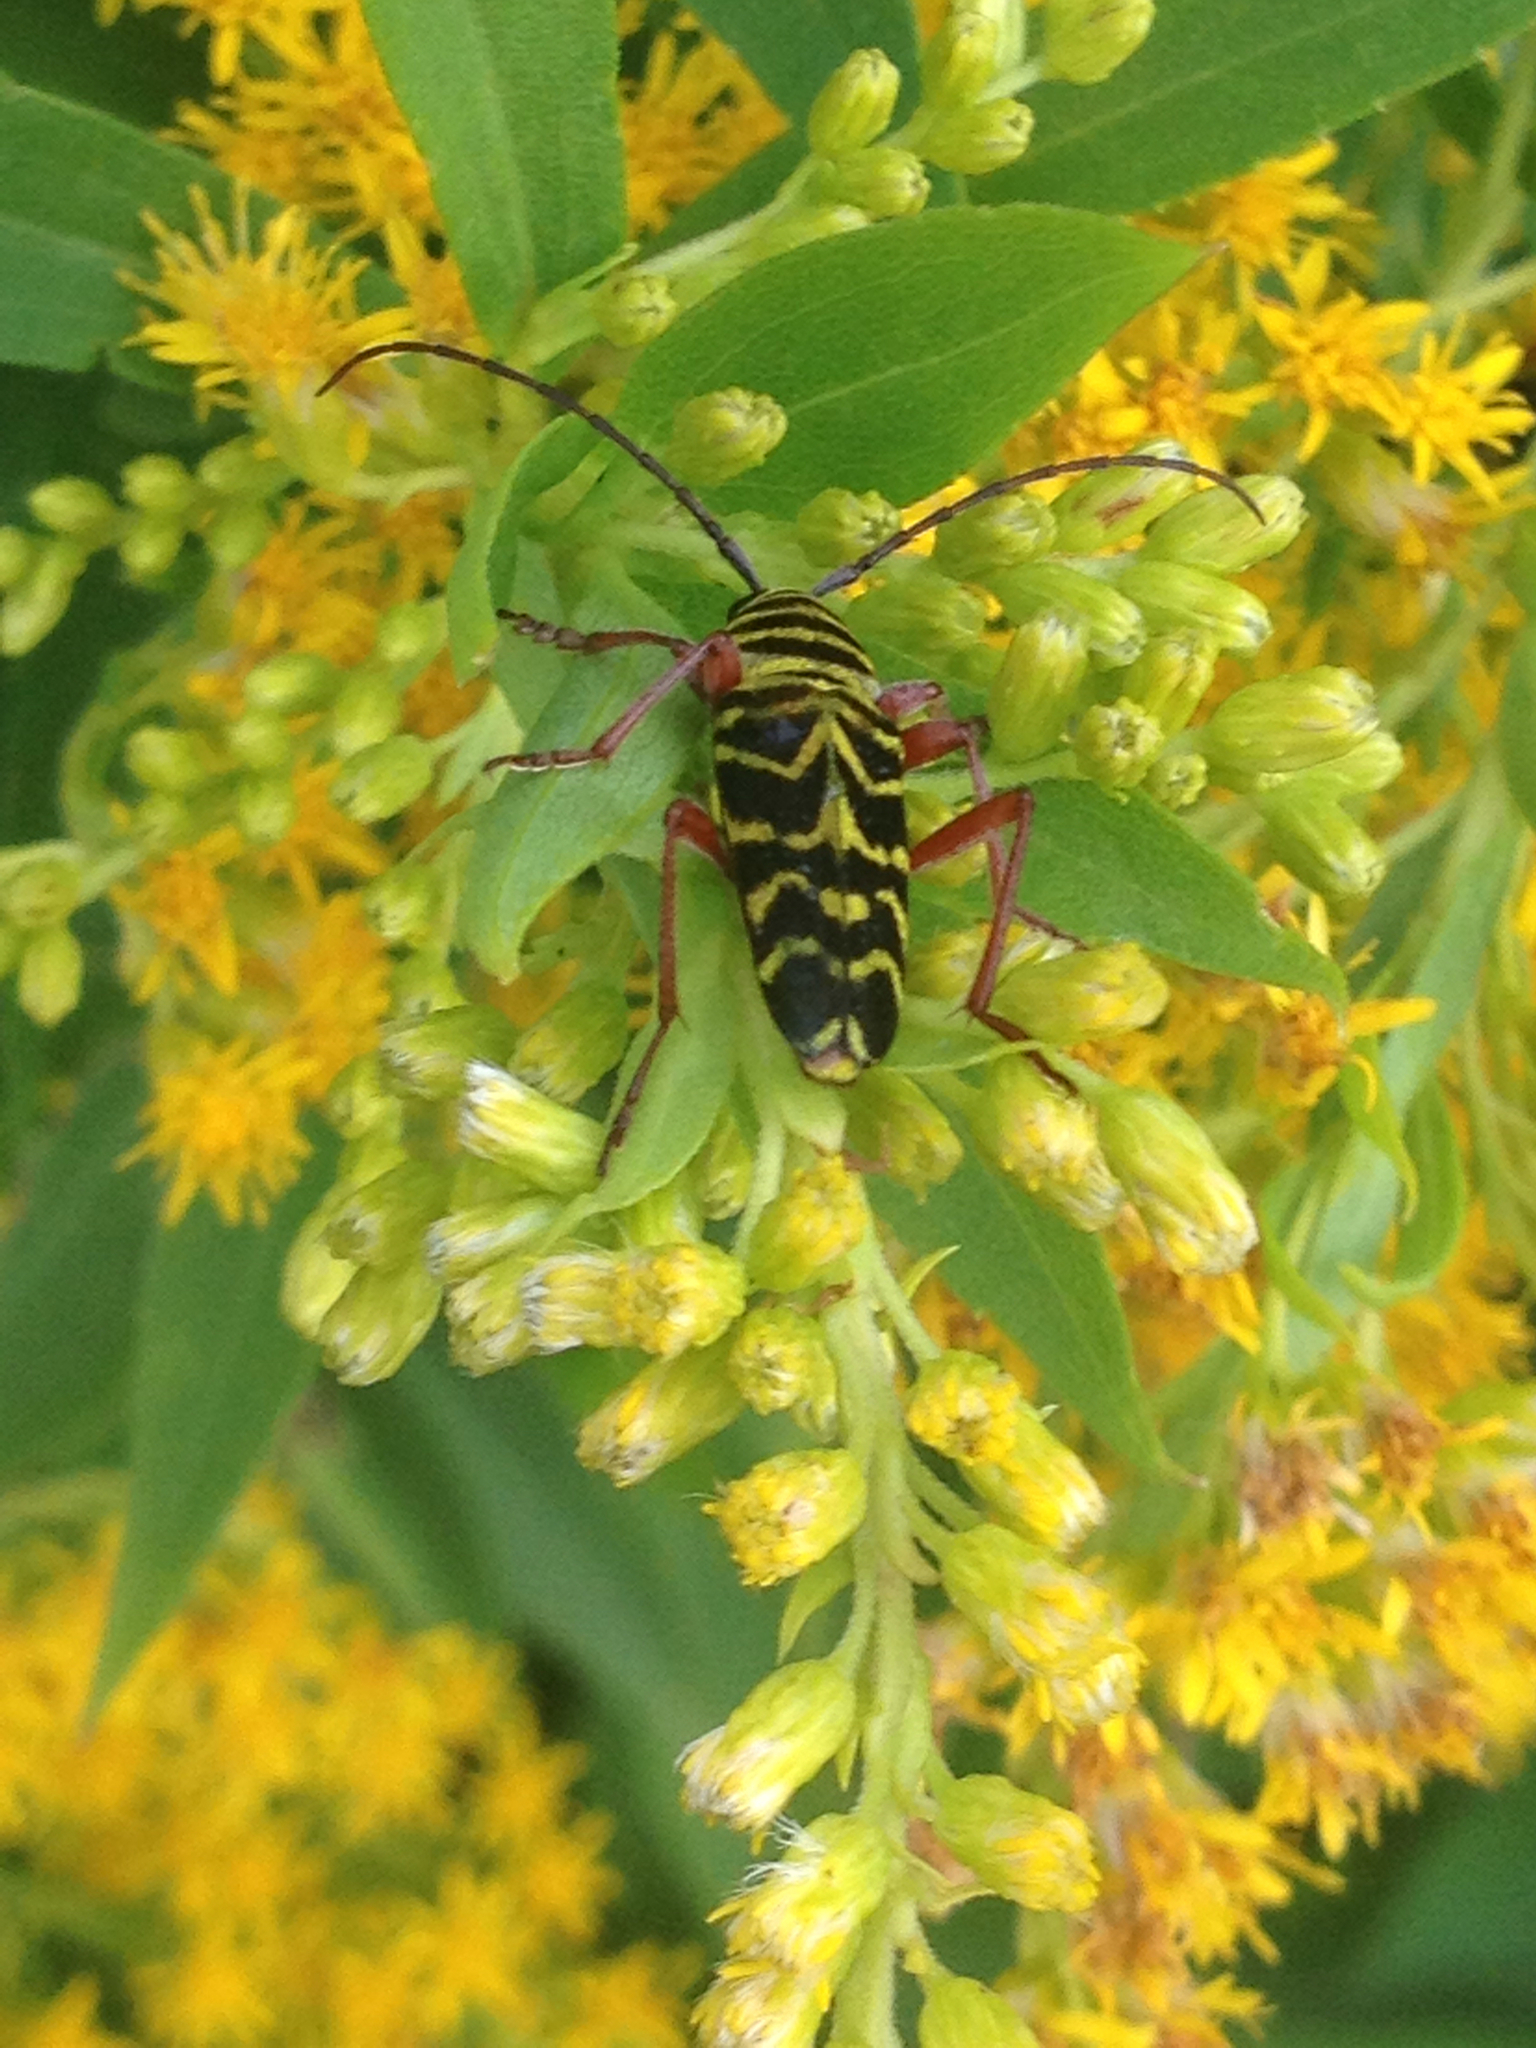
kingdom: Animalia
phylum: Arthropoda
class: Insecta
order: Coleoptera
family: Cerambycidae
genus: Megacyllene
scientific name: Megacyllene robiniae
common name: Locust borer
